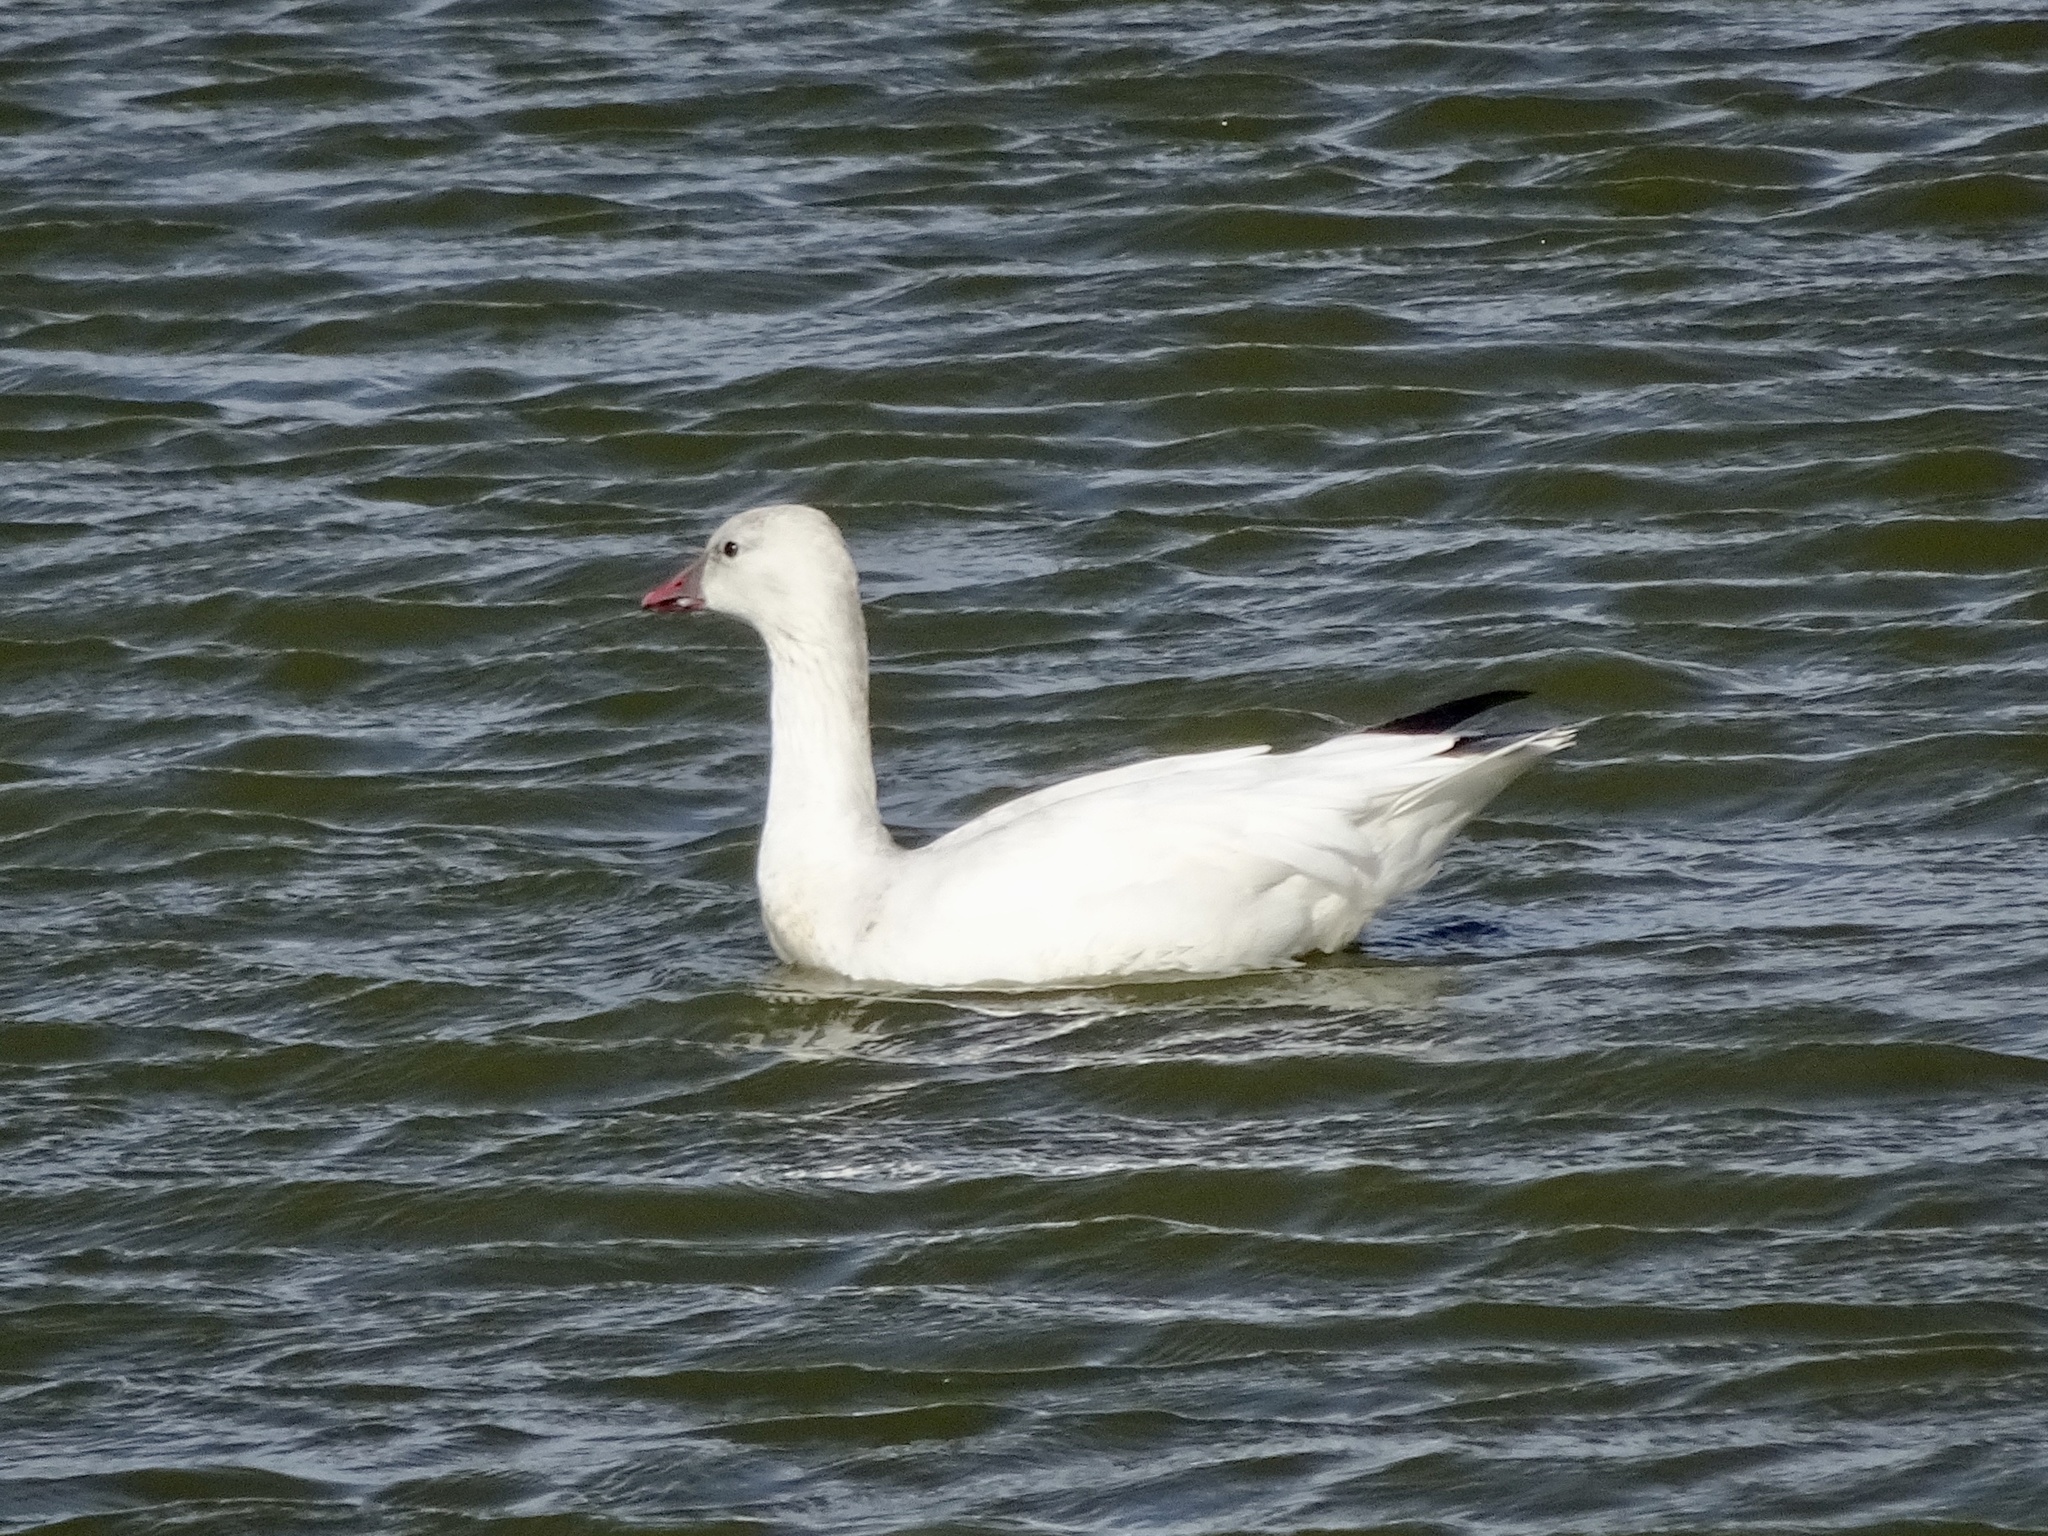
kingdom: Animalia
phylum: Chordata
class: Aves
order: Anseriformes
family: Anatidae
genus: Anser
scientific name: Anser rossii
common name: Ross's goose
